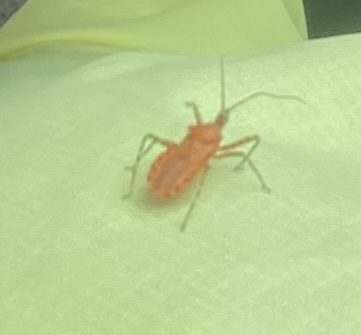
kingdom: Animalia
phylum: Arthropoda
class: Insecta
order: Hemiptera
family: Reduviidae
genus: Pselliopus
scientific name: Pselliopus barberi
